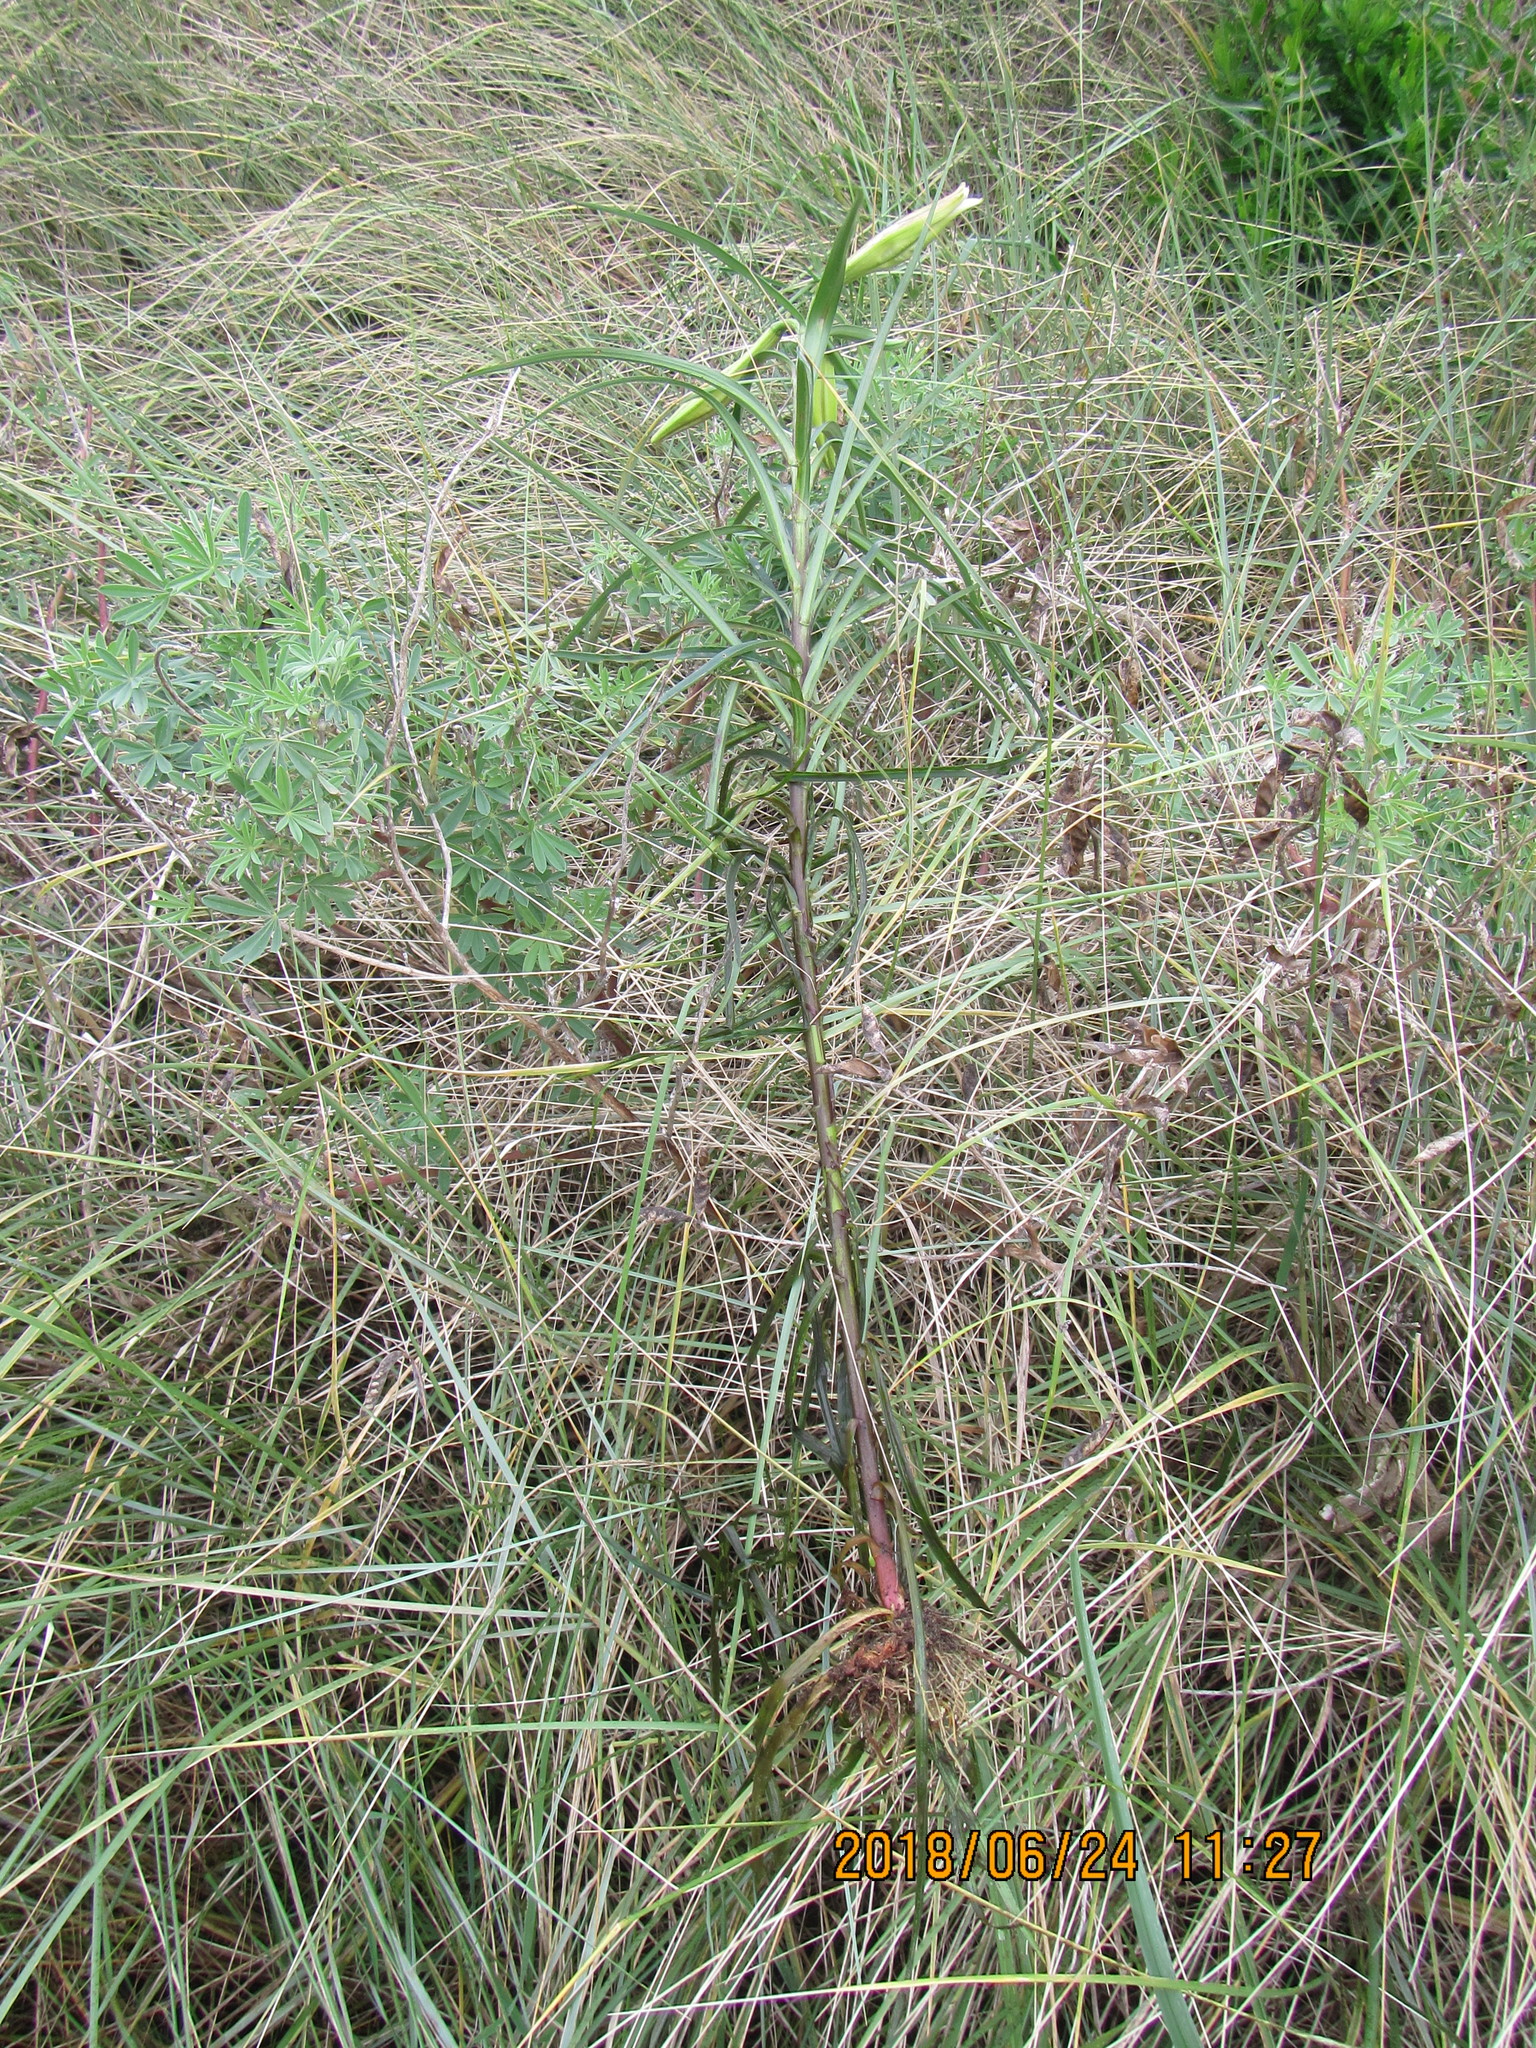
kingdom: Plantae
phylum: Tracheophyta
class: Liliopsida
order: Liliales
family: Liliaceae
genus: Lilium
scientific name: Lilium formosanum
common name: Formosa lily
